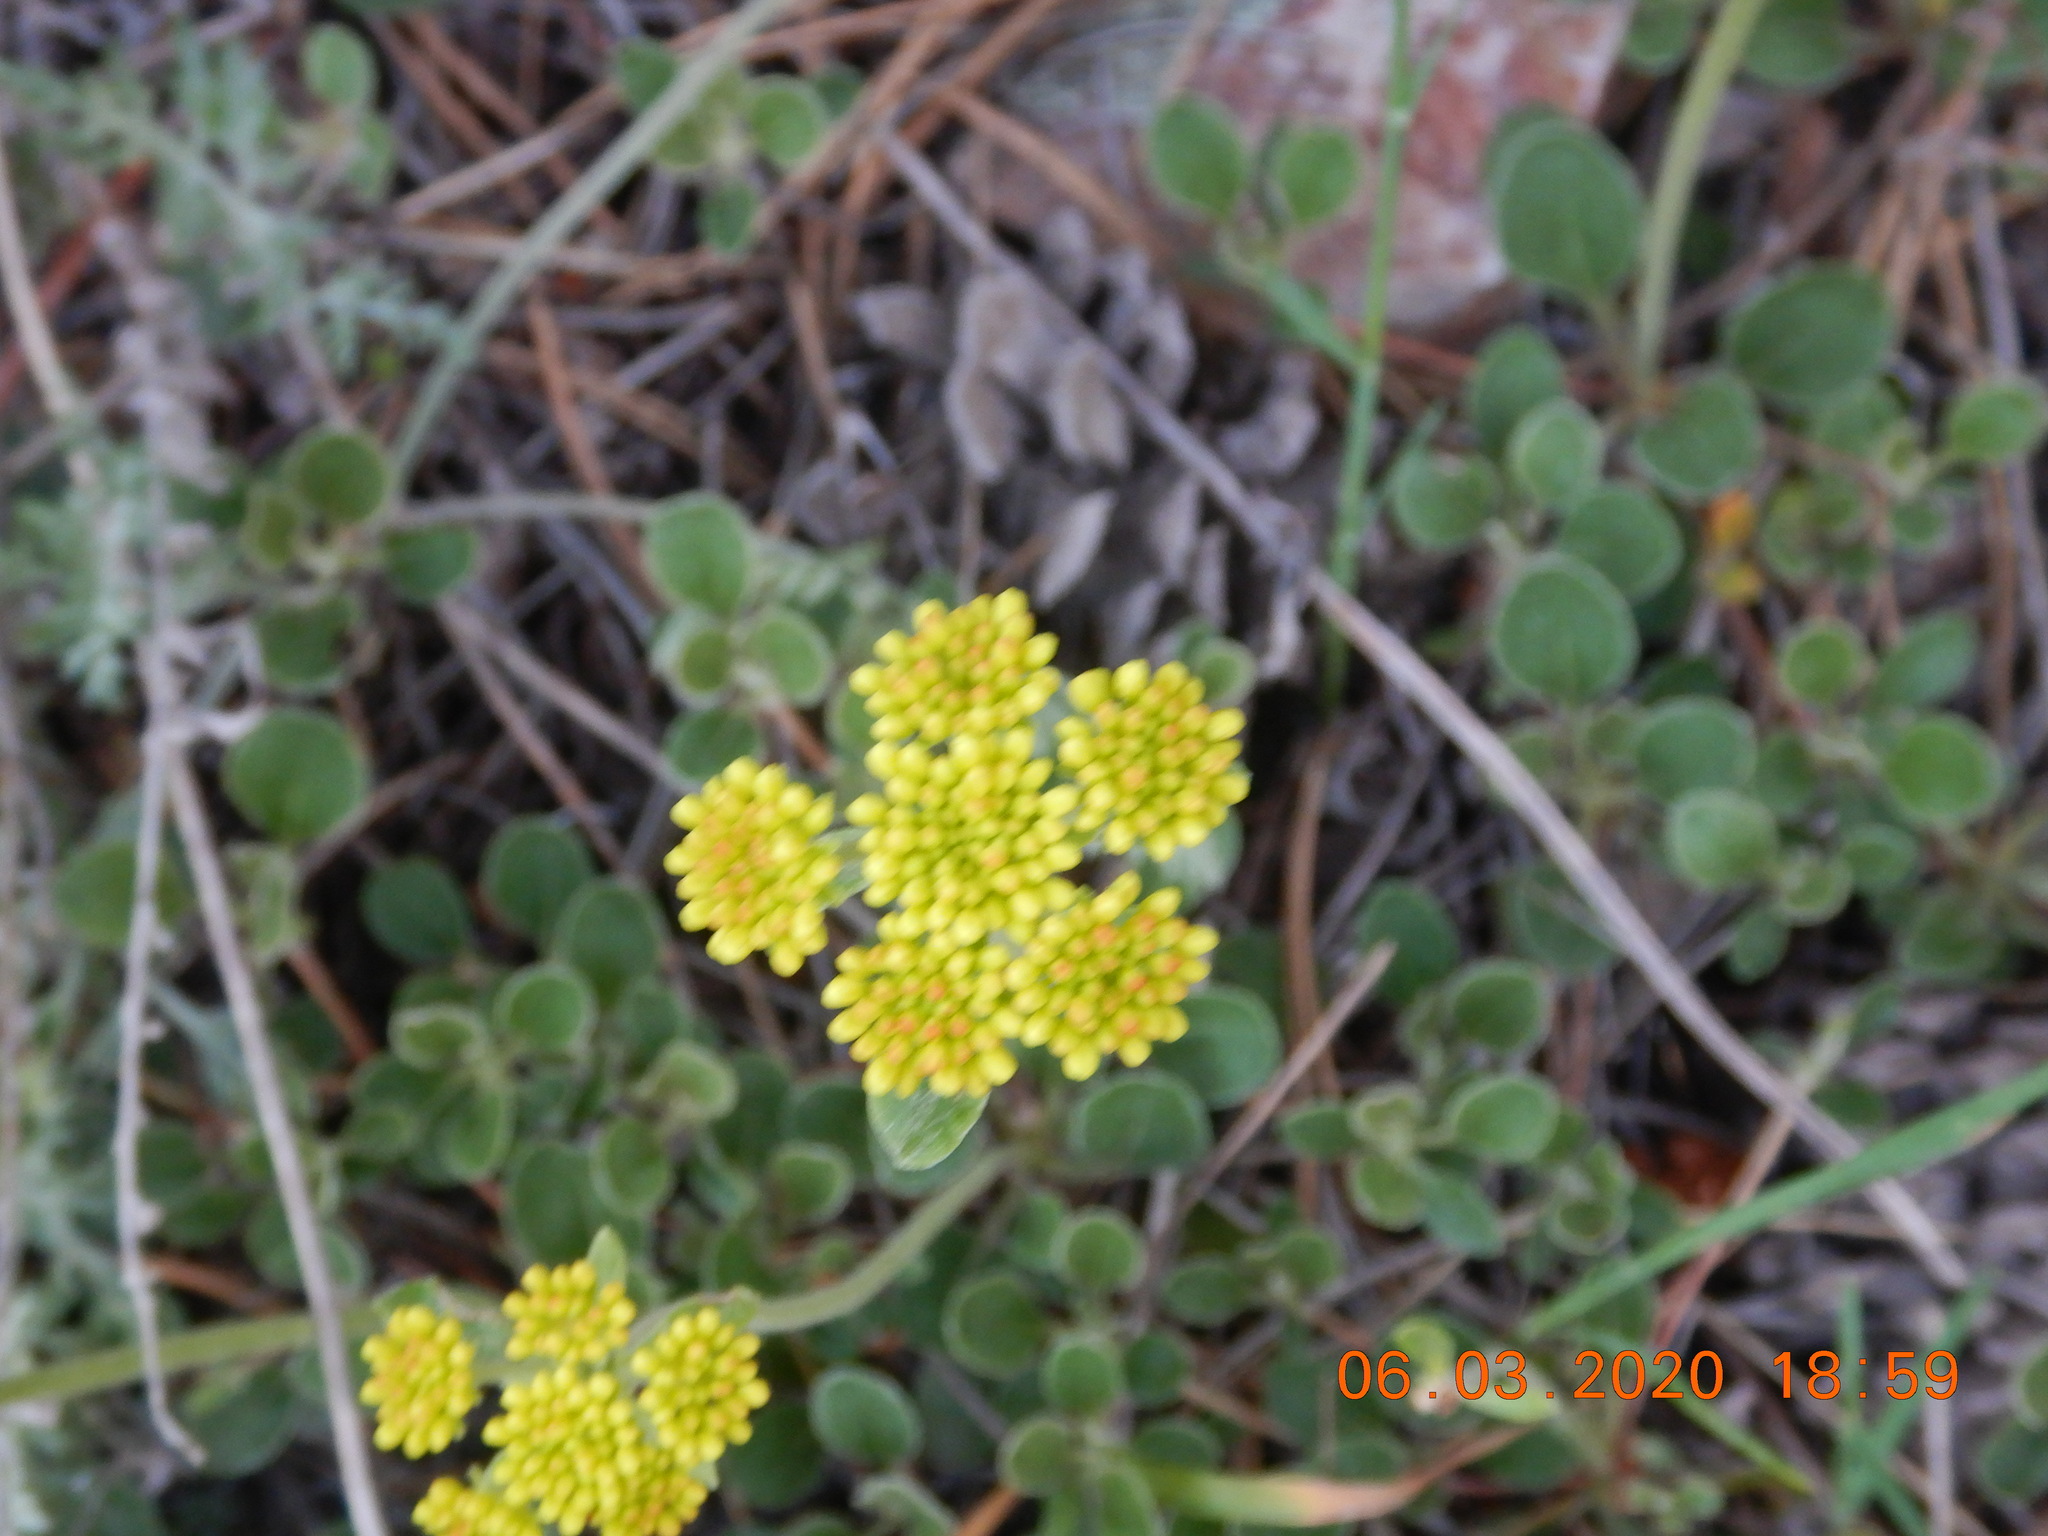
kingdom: Plantae
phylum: Tracheophyta
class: Magnoliopsida
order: Caryophyllales
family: Polygonaceae
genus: Eriogonum
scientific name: Eriogonum umbellatum
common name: Sulfur-buckwheat
